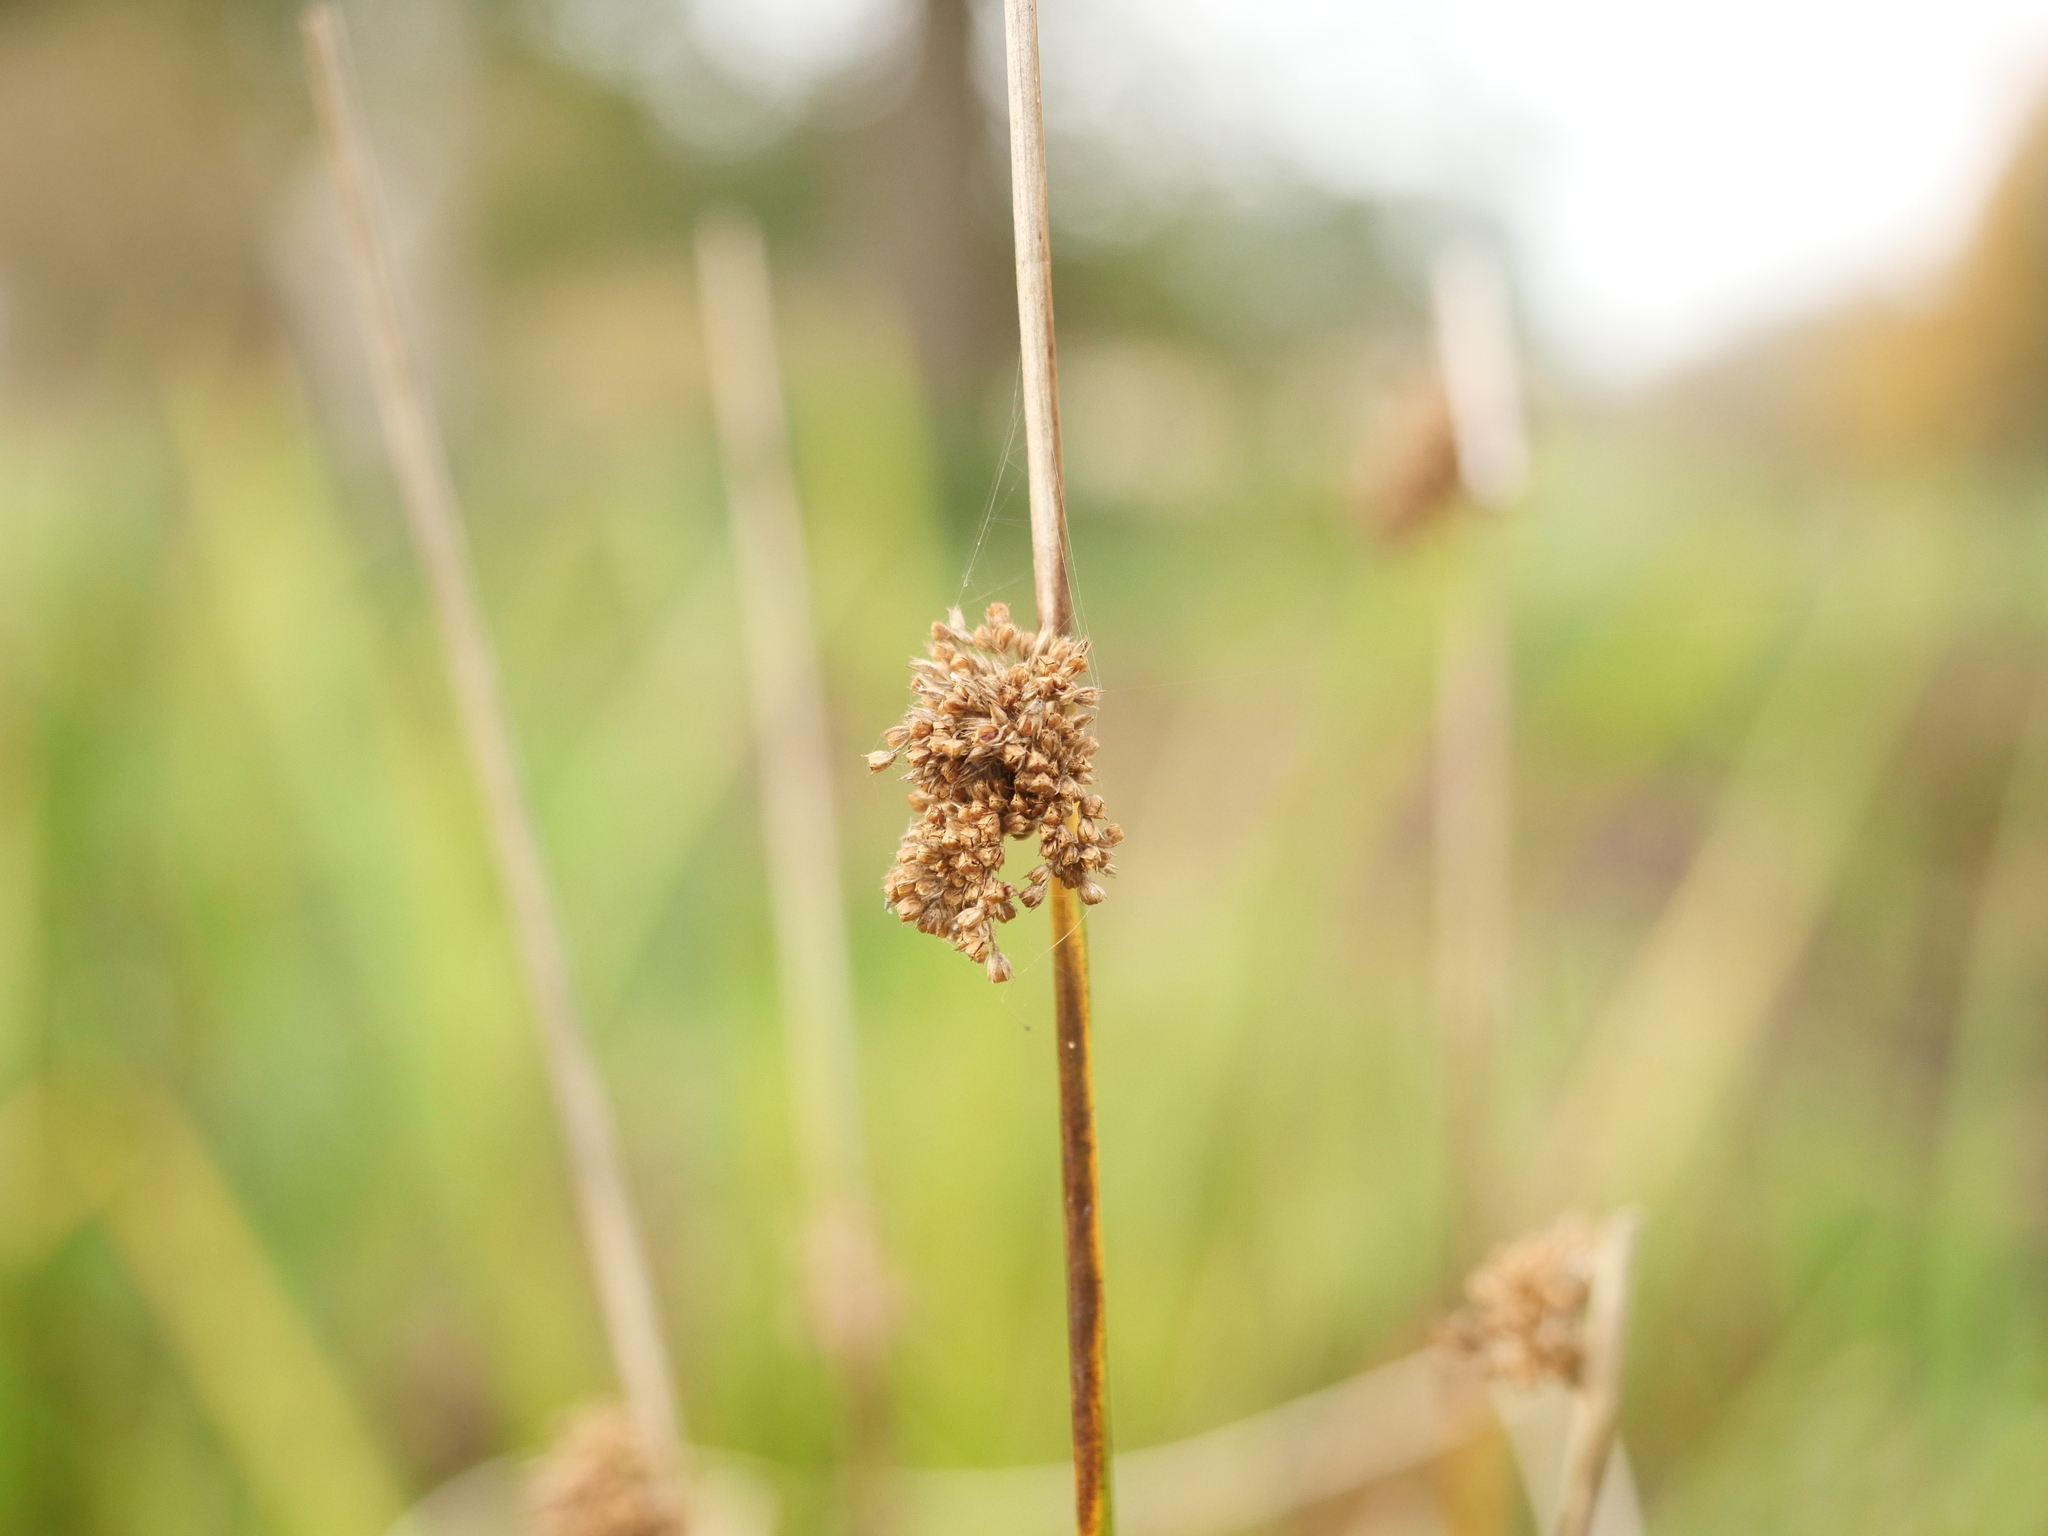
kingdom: Plantae
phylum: Tracheophyta
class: Liliopsida
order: Poales
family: Juncaceae
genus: Juncus
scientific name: Juncus effusus
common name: Soft rush
